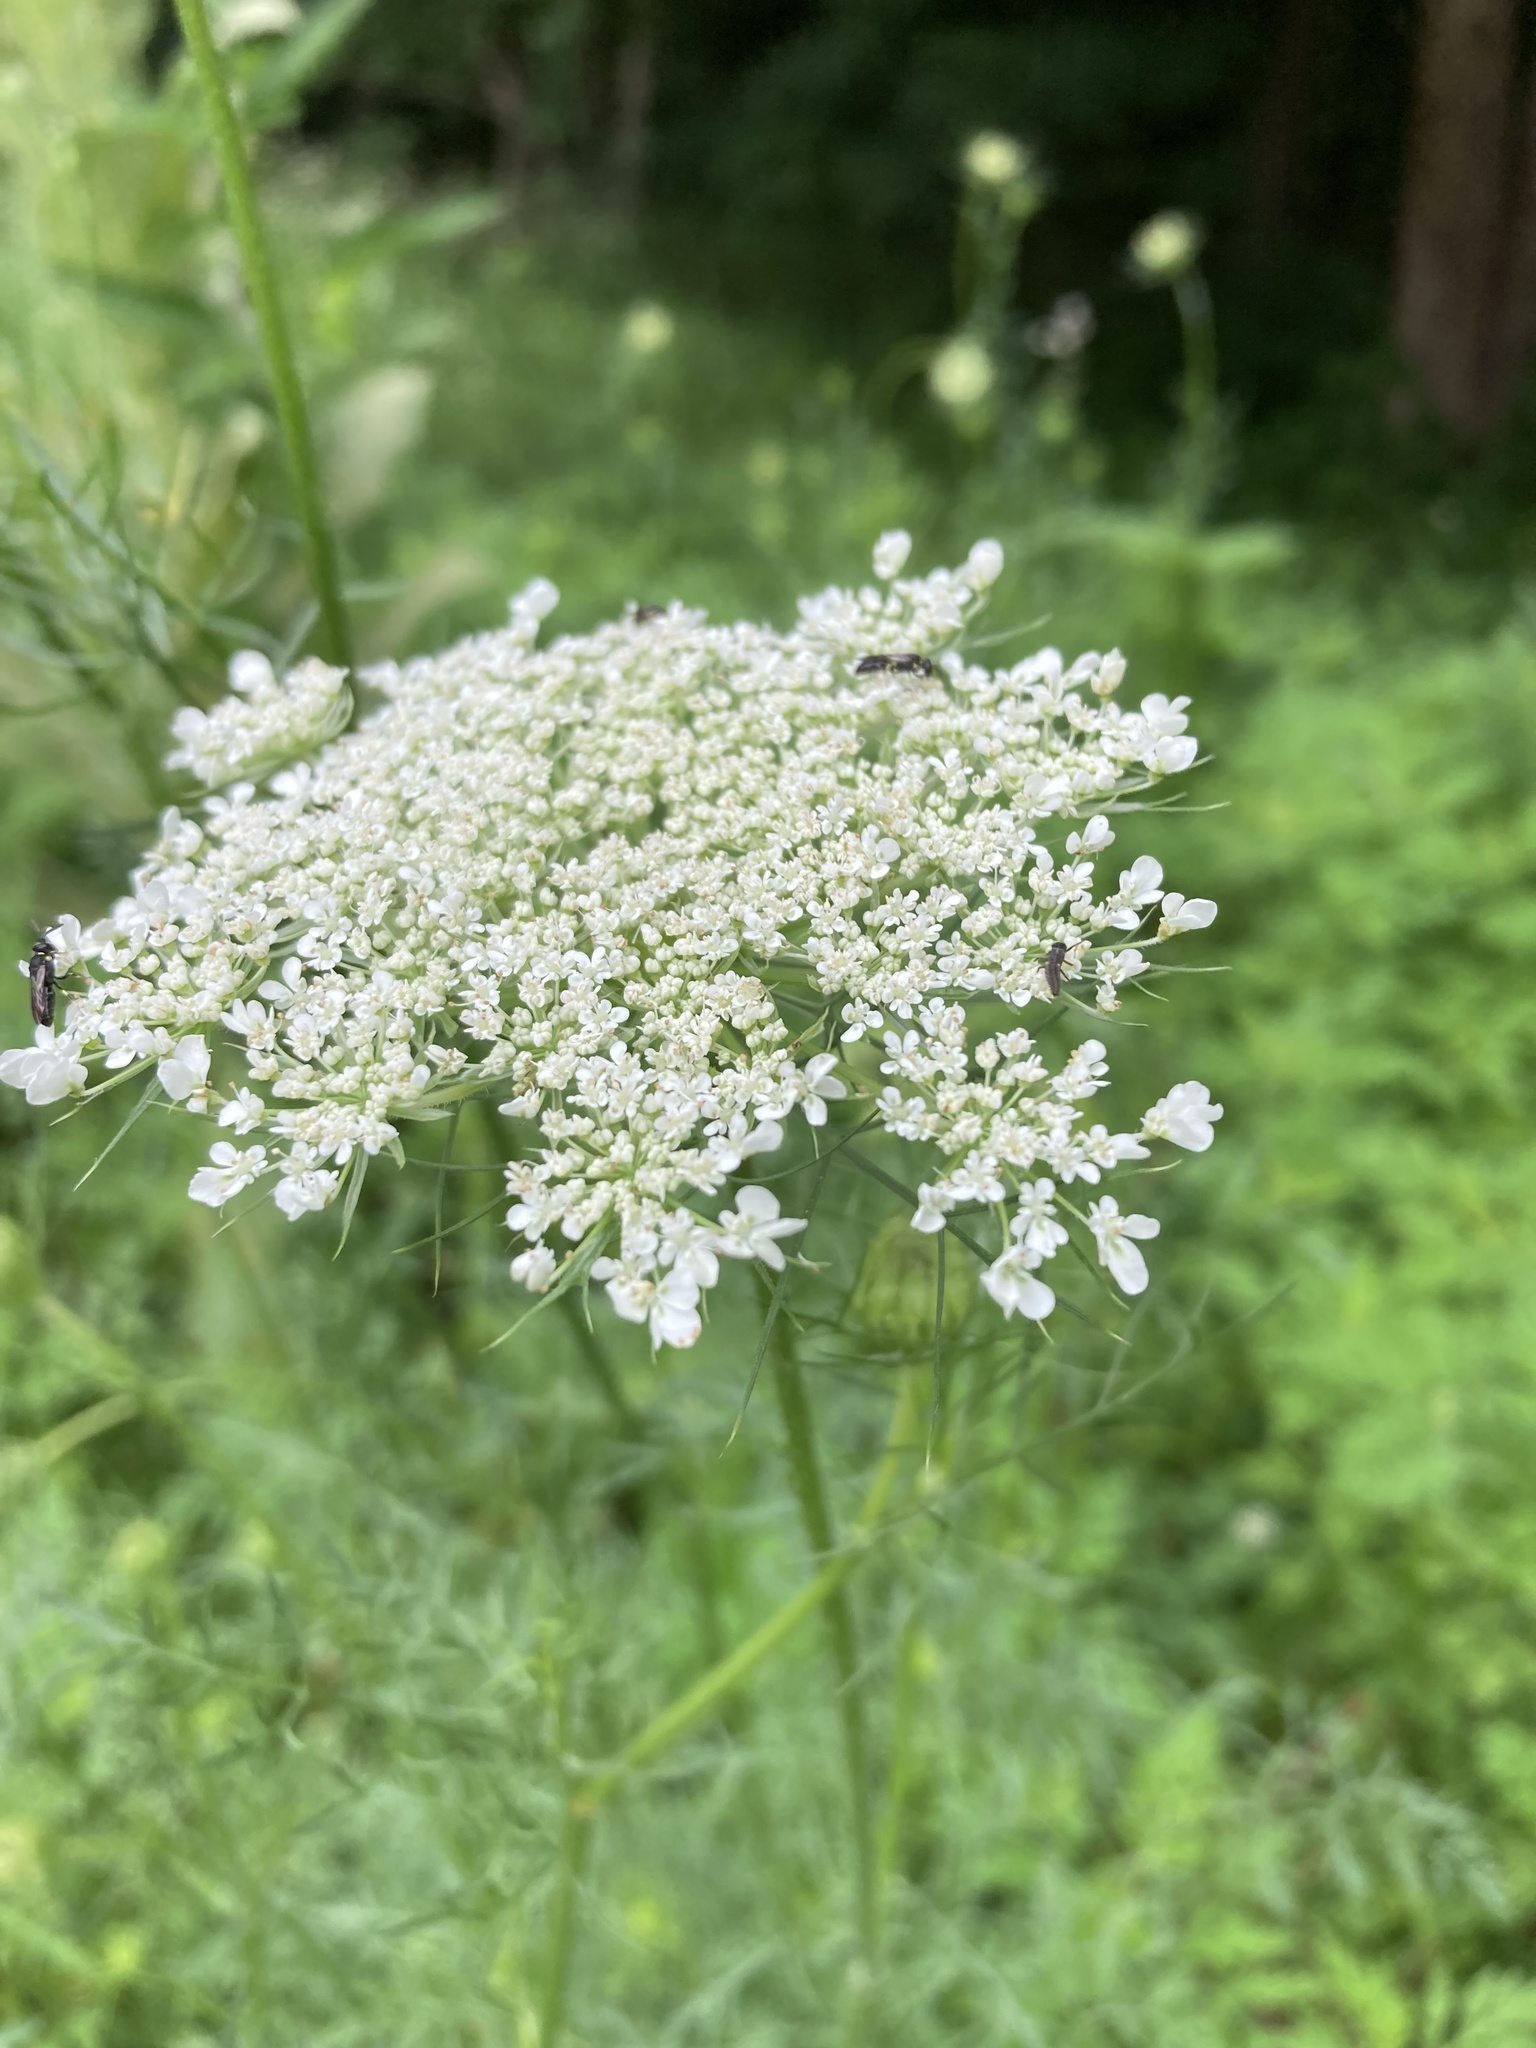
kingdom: Plantae
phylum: Tracheophyta
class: Magnoliopsida
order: Apiales
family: Apiaceae
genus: Daucus
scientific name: Daucus carota
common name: Wild carrot
